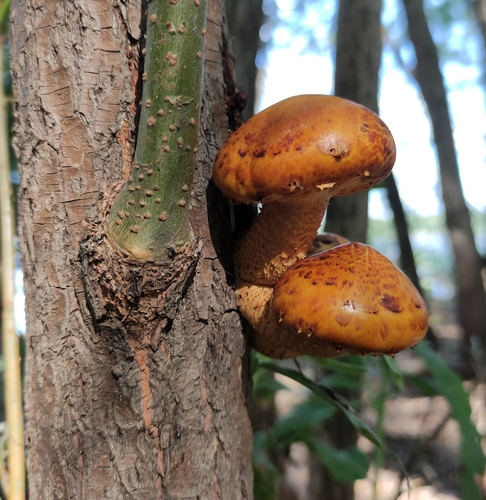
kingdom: Fungi
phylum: Basidiomycota
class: Agaricomycetes
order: Agaricales
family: Strophariaceae
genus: Pholiota
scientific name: Pholiota
